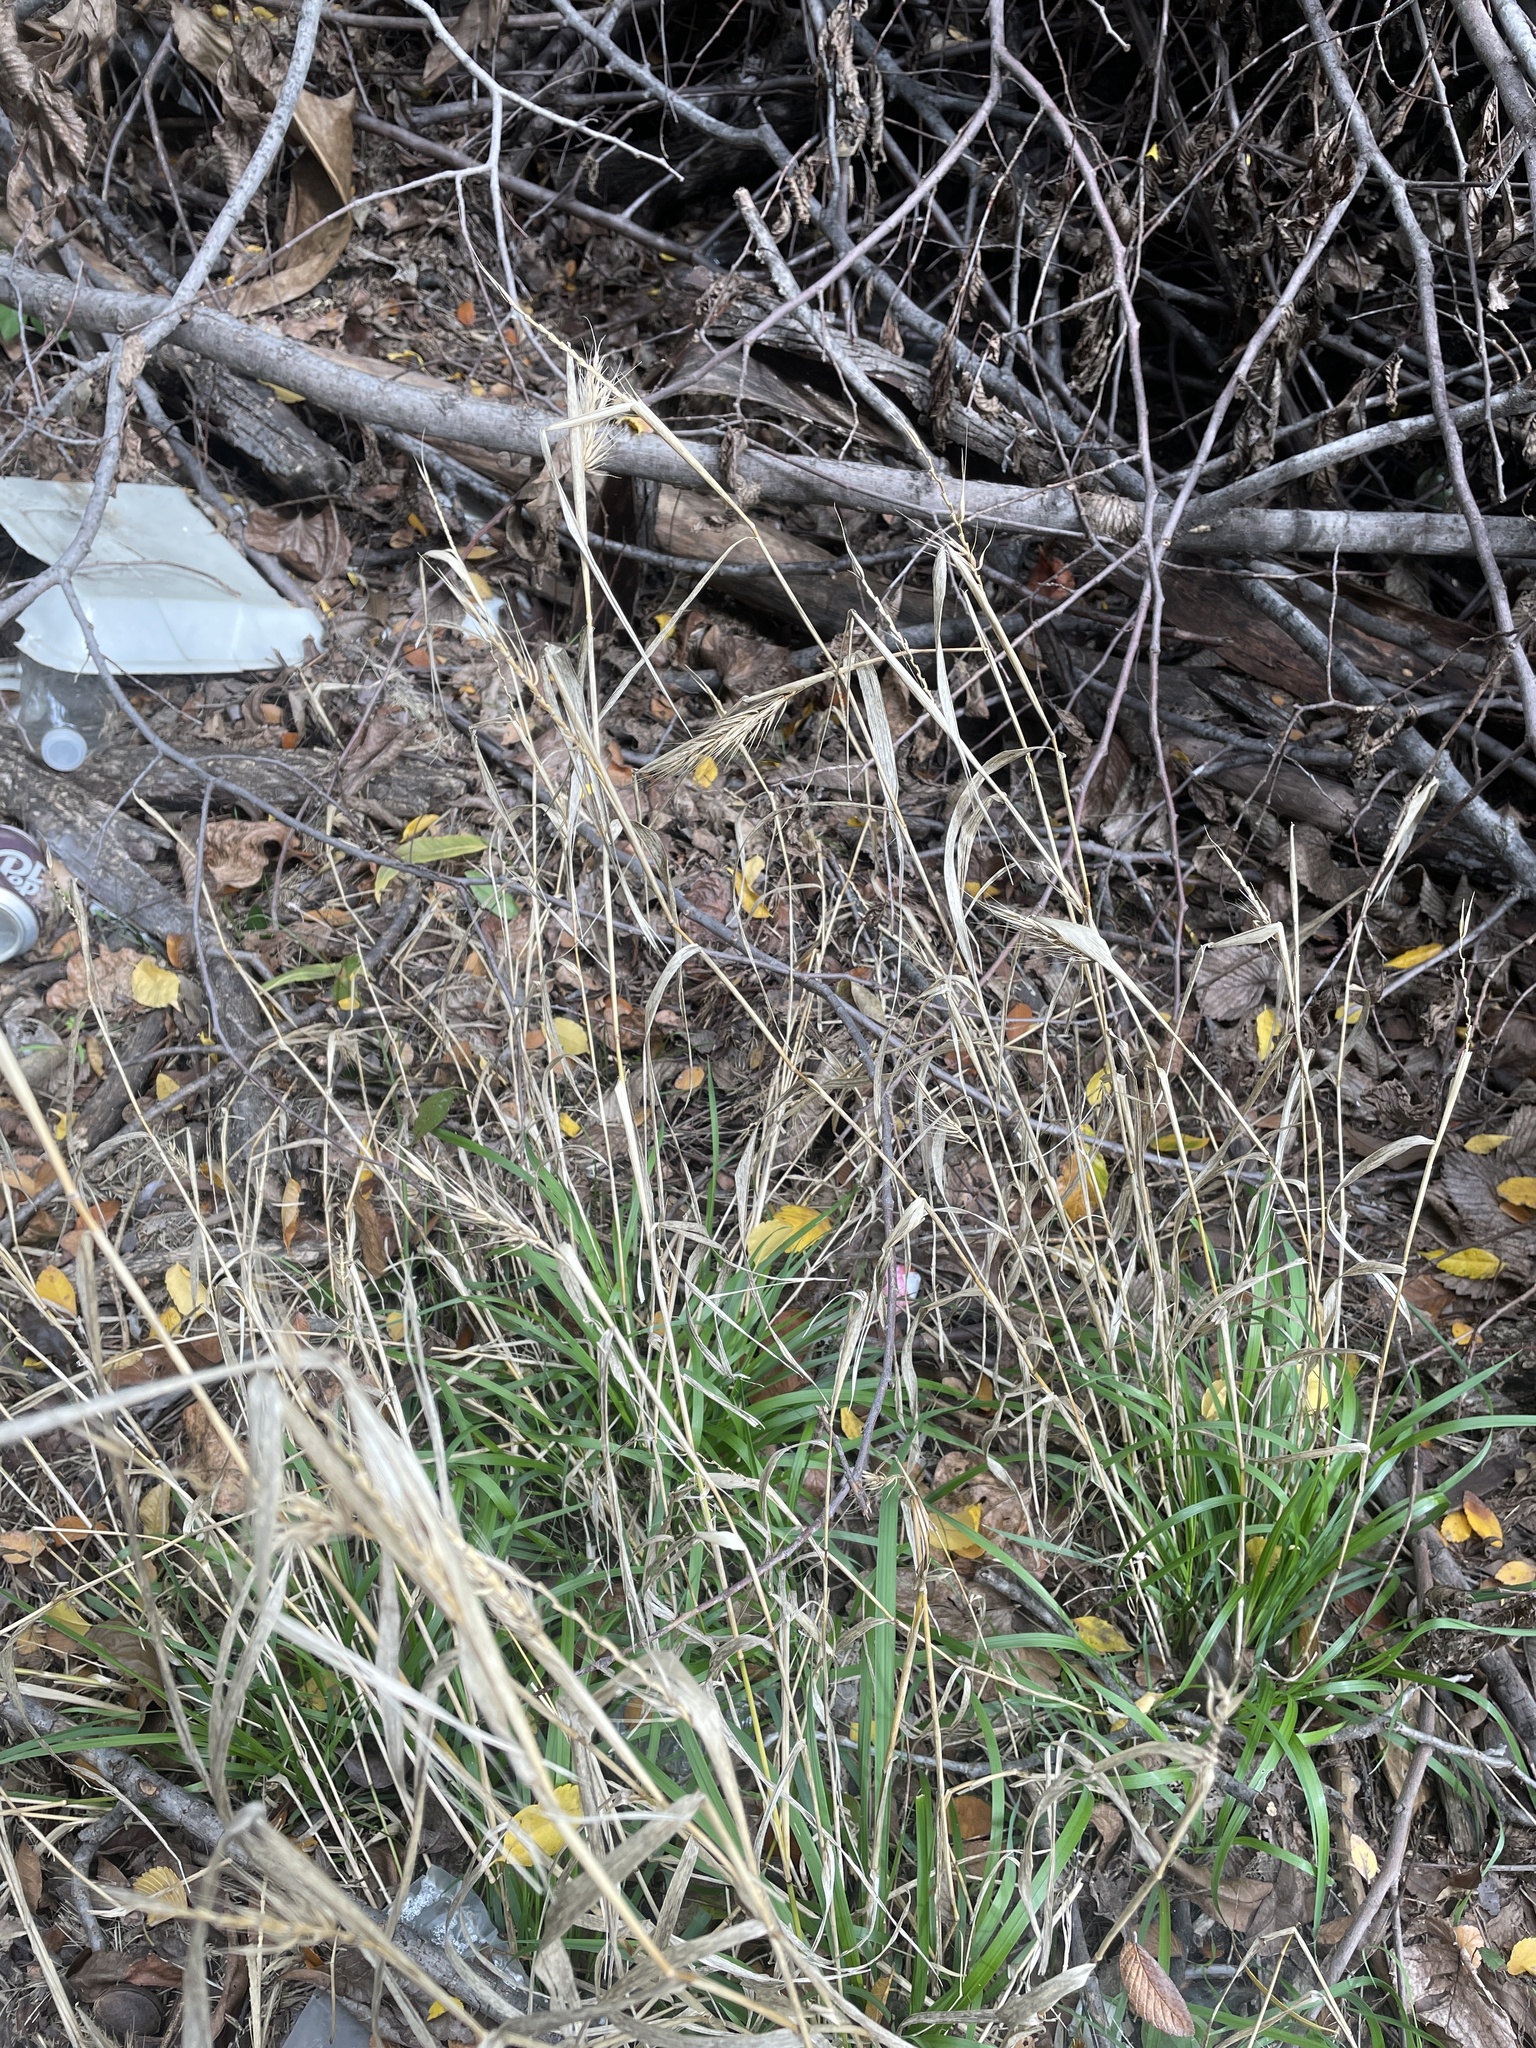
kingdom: Plantae
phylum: Tracheophyta
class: Liliopsida
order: Poales
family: Poaceae
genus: Elymus
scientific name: Elymus virginicus
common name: Common eastern wildrye
